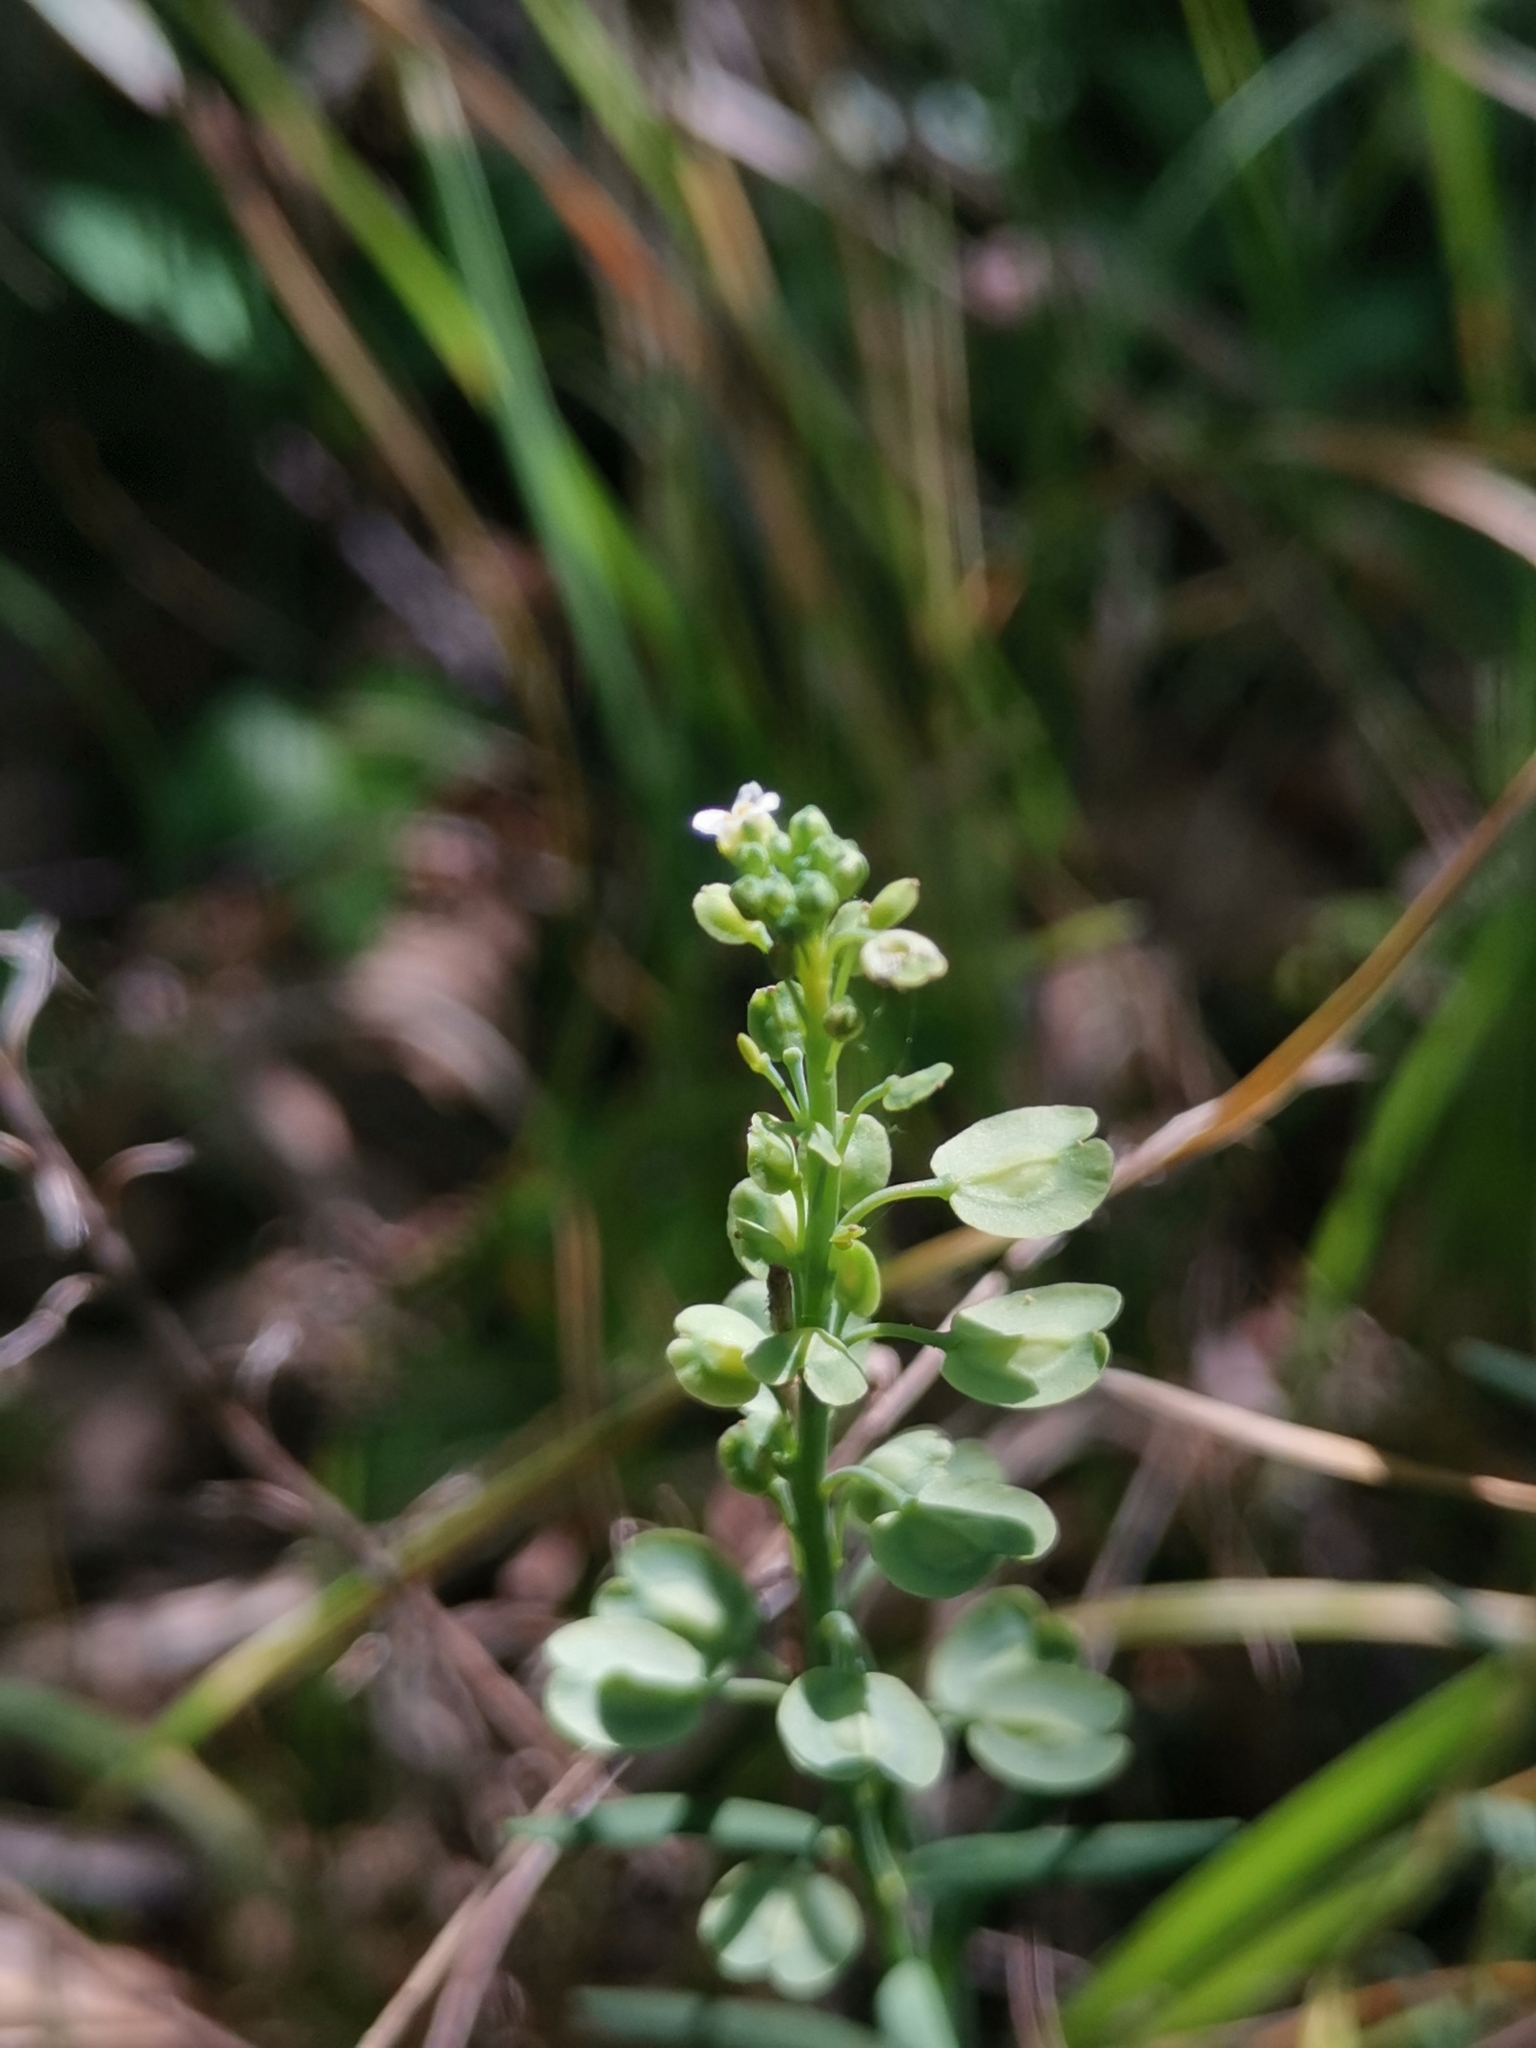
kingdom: Plantae
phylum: Tracheophyta
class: Magnoliopsida
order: Brassicales
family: Brassicaceae
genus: Aethionema
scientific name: Aethionema saxatile
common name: Burnt candytuft
